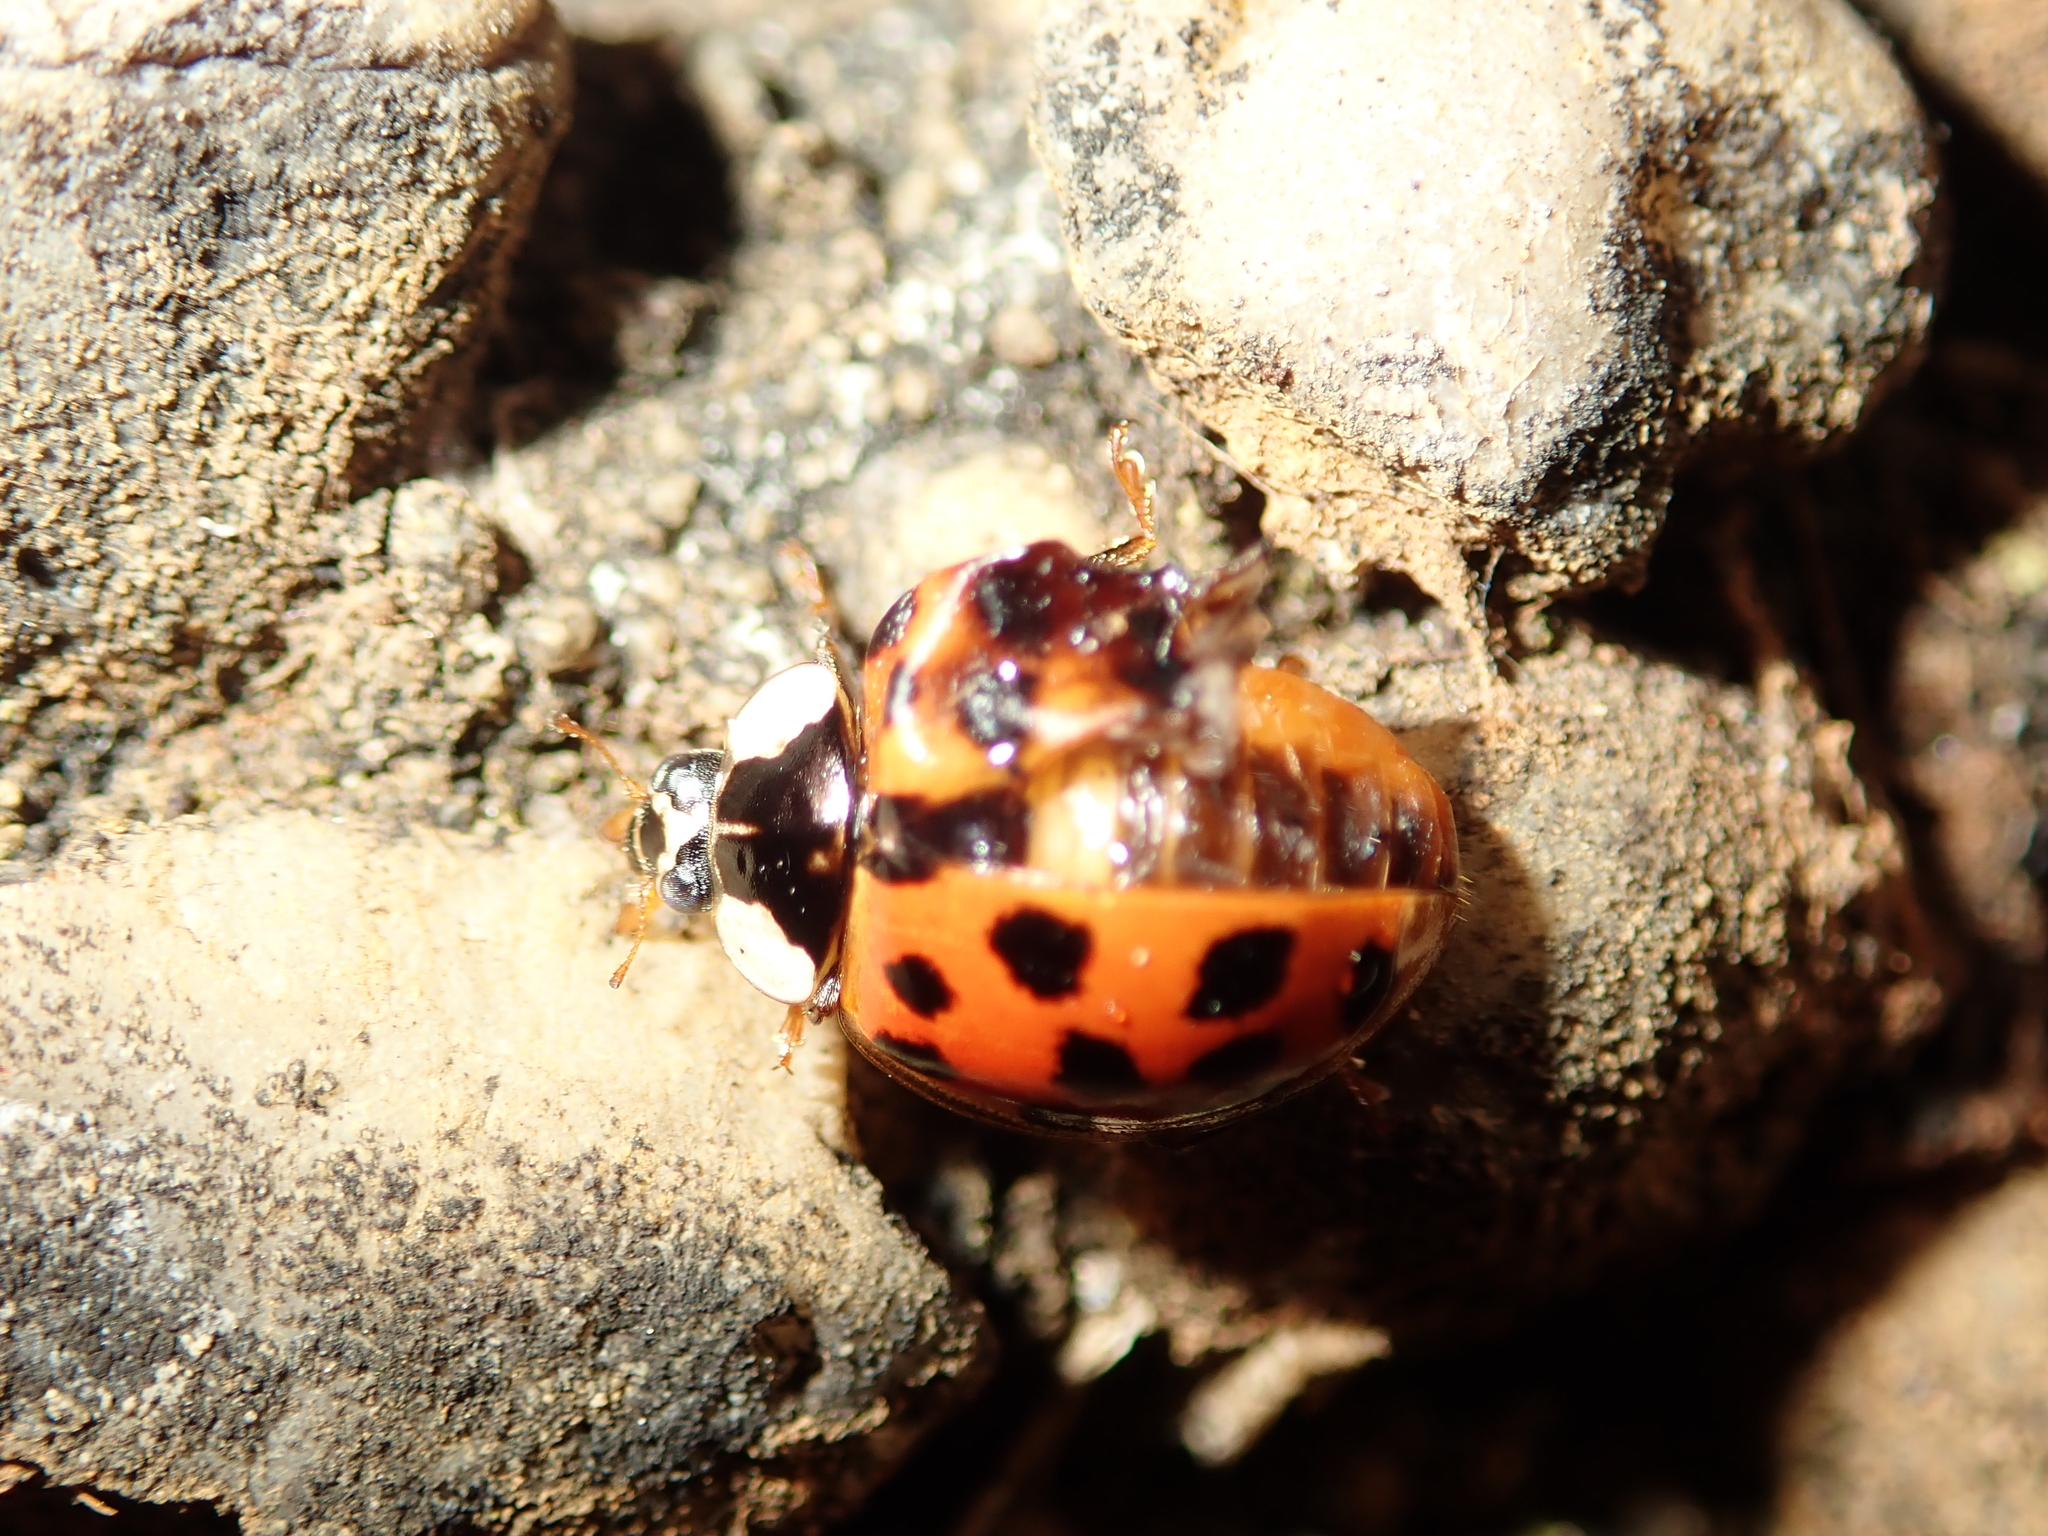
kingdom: Animalia
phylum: Arthropoda
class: Insecta
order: Coleoptera
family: Coccinellidae
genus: Harmonia
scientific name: Harmonia axyridis
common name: Harlequin ladybird
